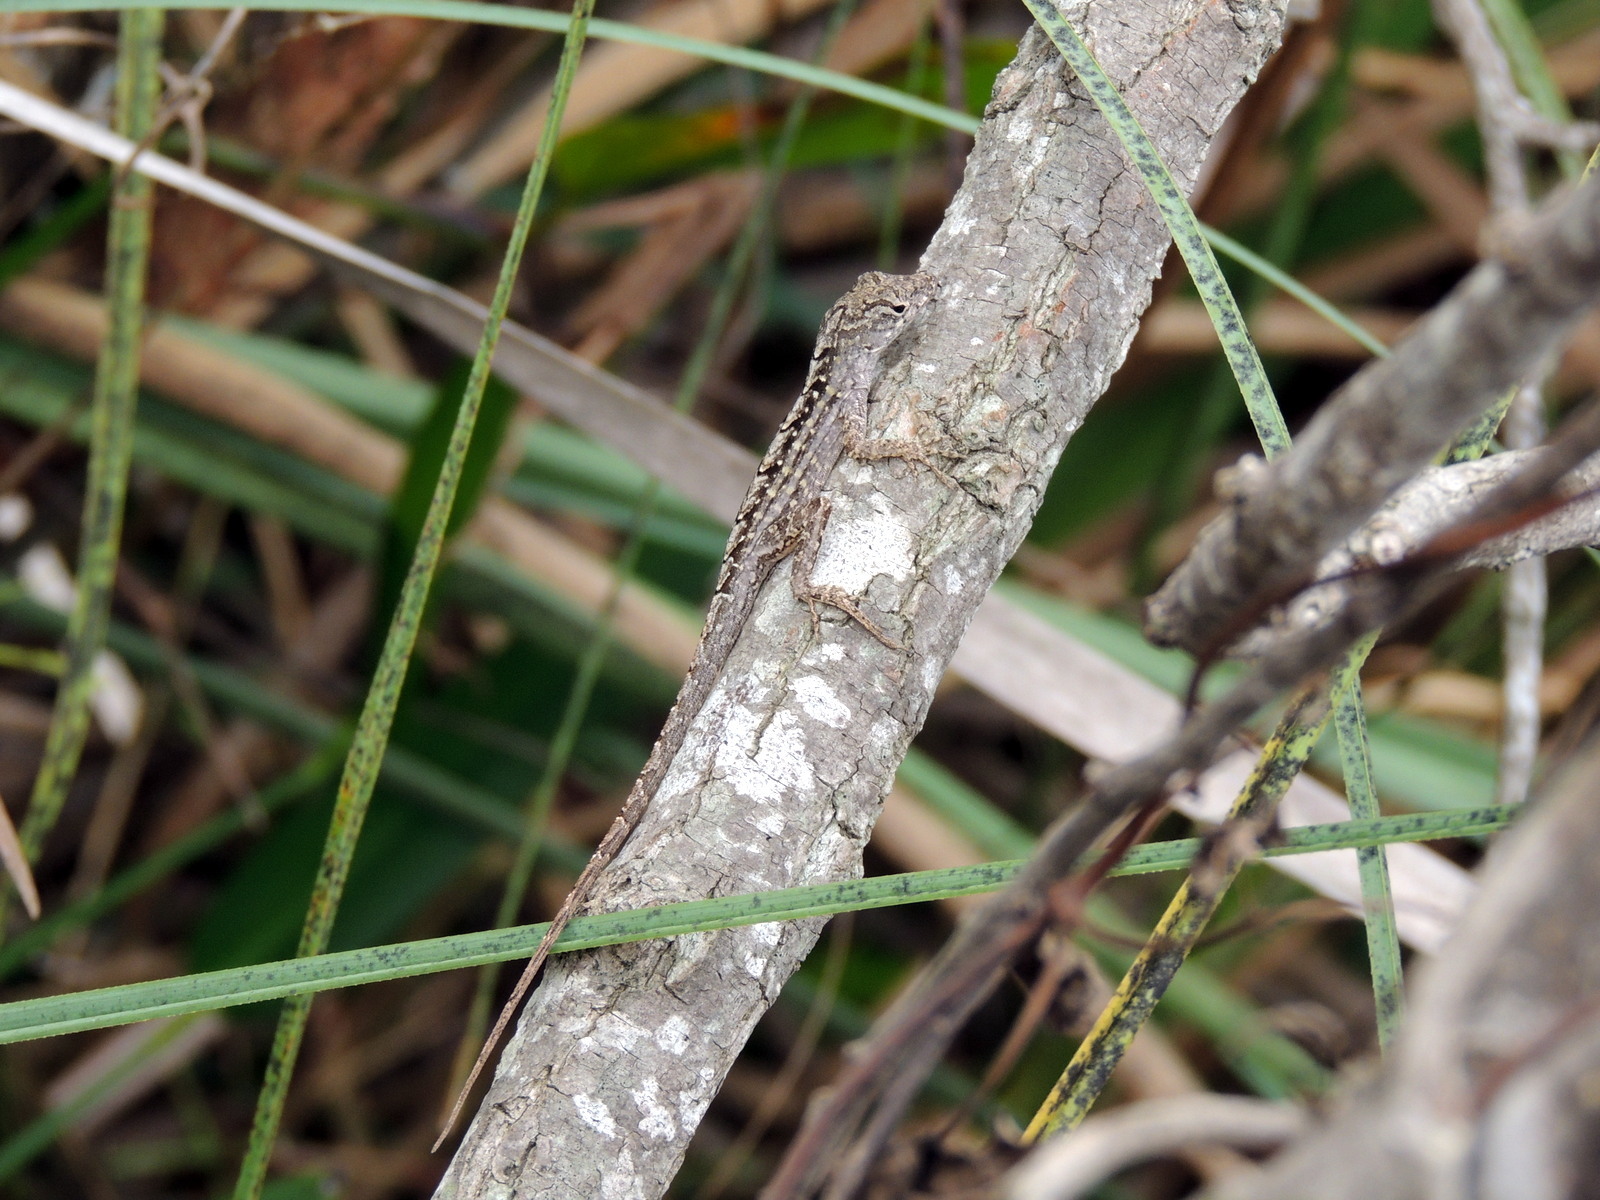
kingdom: Animalia
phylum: Chordata
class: Squamata
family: Dactyloidae
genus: Anolis
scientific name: Anolis sagrei
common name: Brown anole
